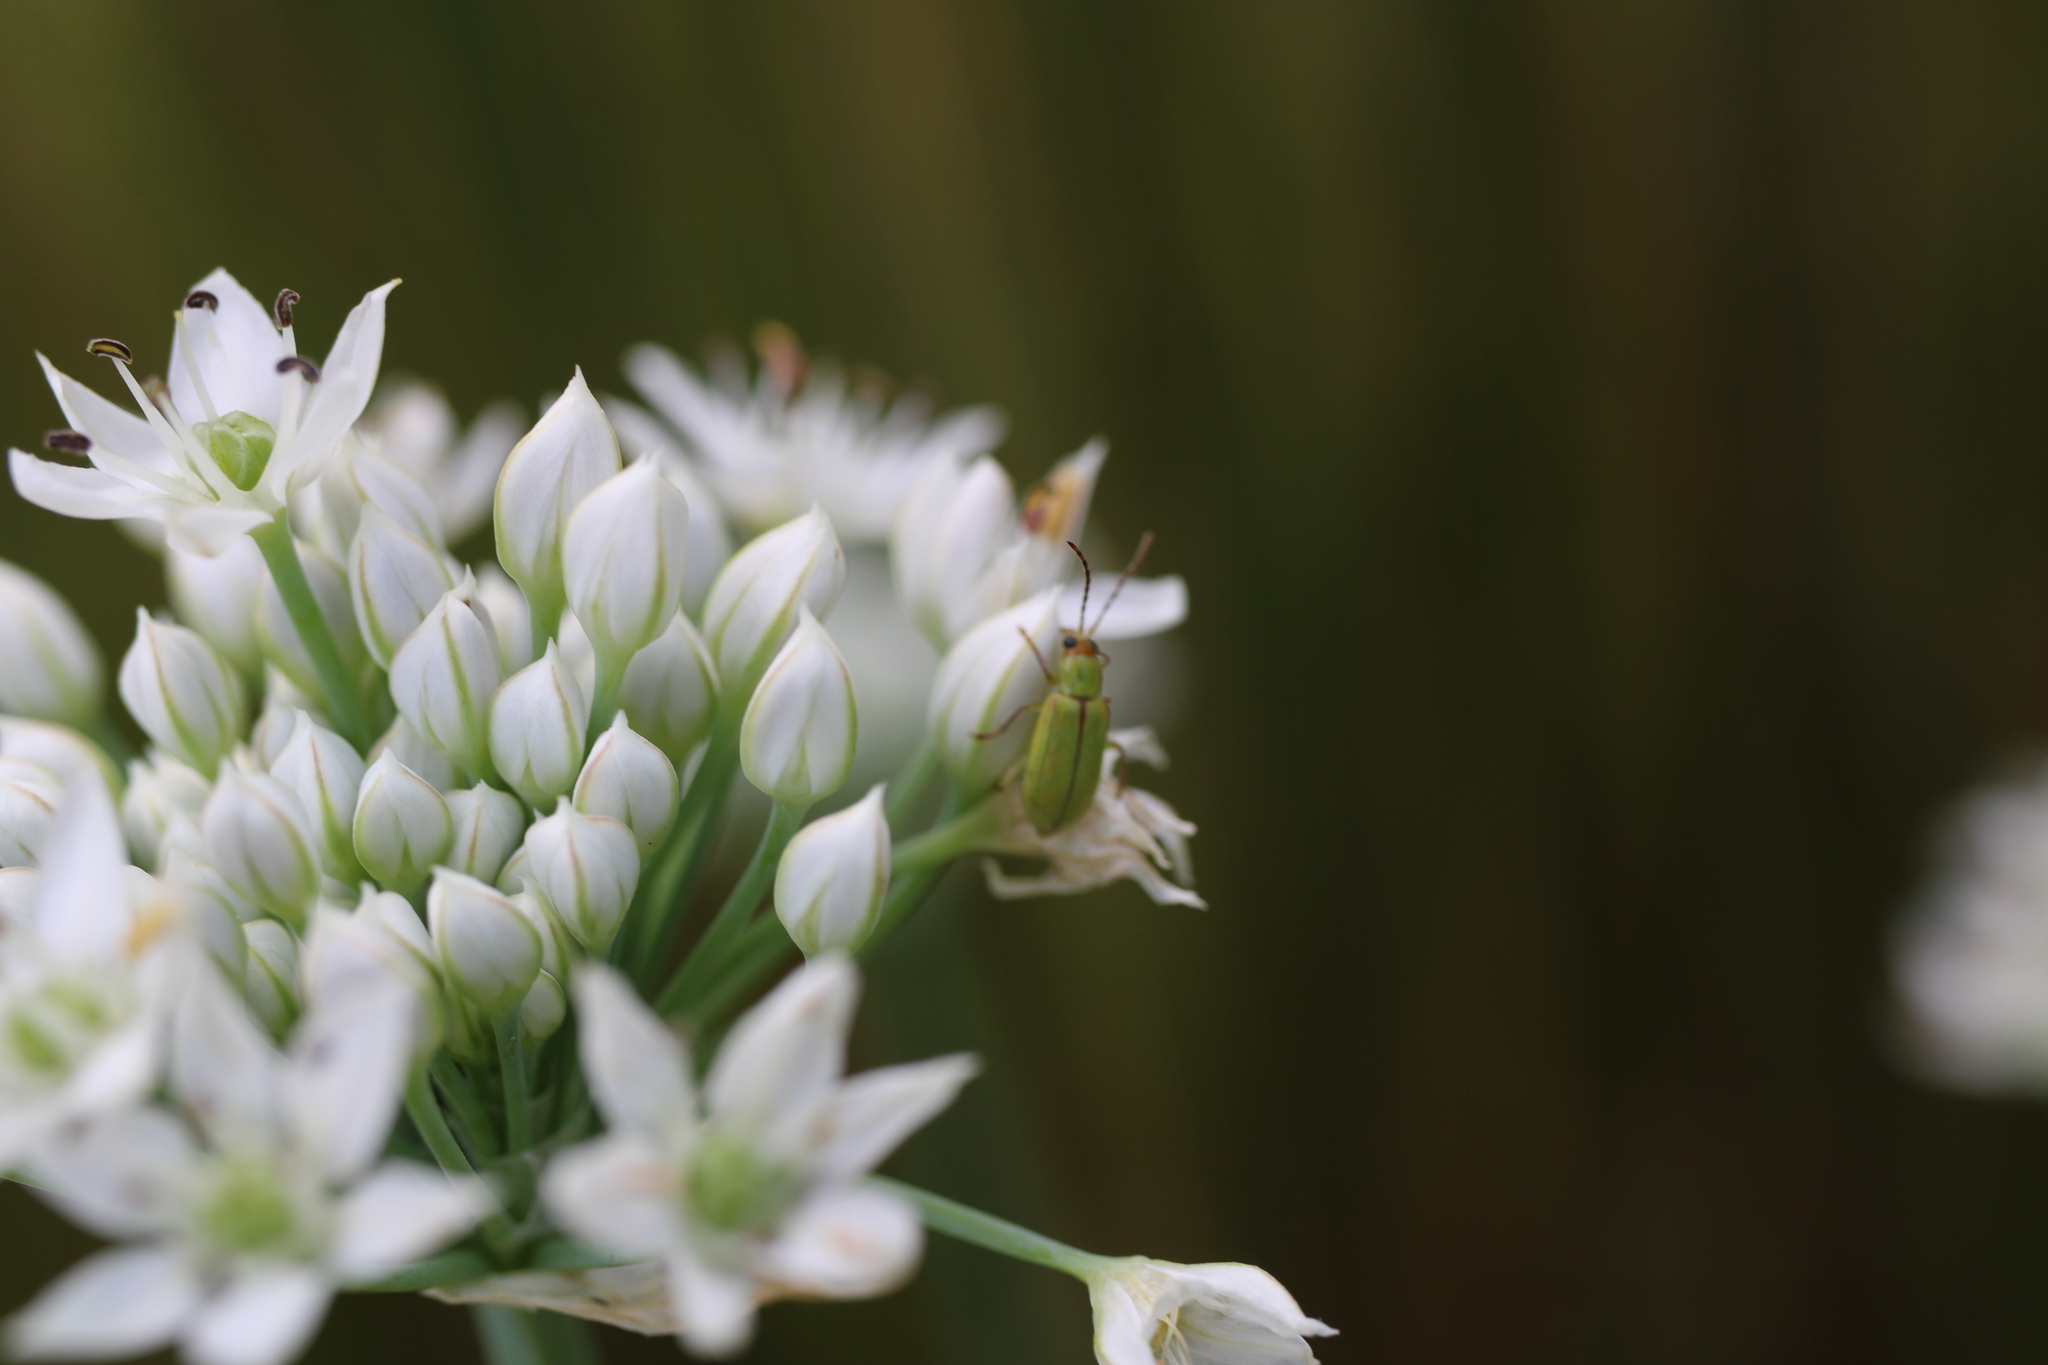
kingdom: Animalia
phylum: Arthropoda
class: Insecta
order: Coleoptera
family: Chrysomelidae
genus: Diabrotica
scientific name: Diabrotica barberi
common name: Northern corn rootworm
